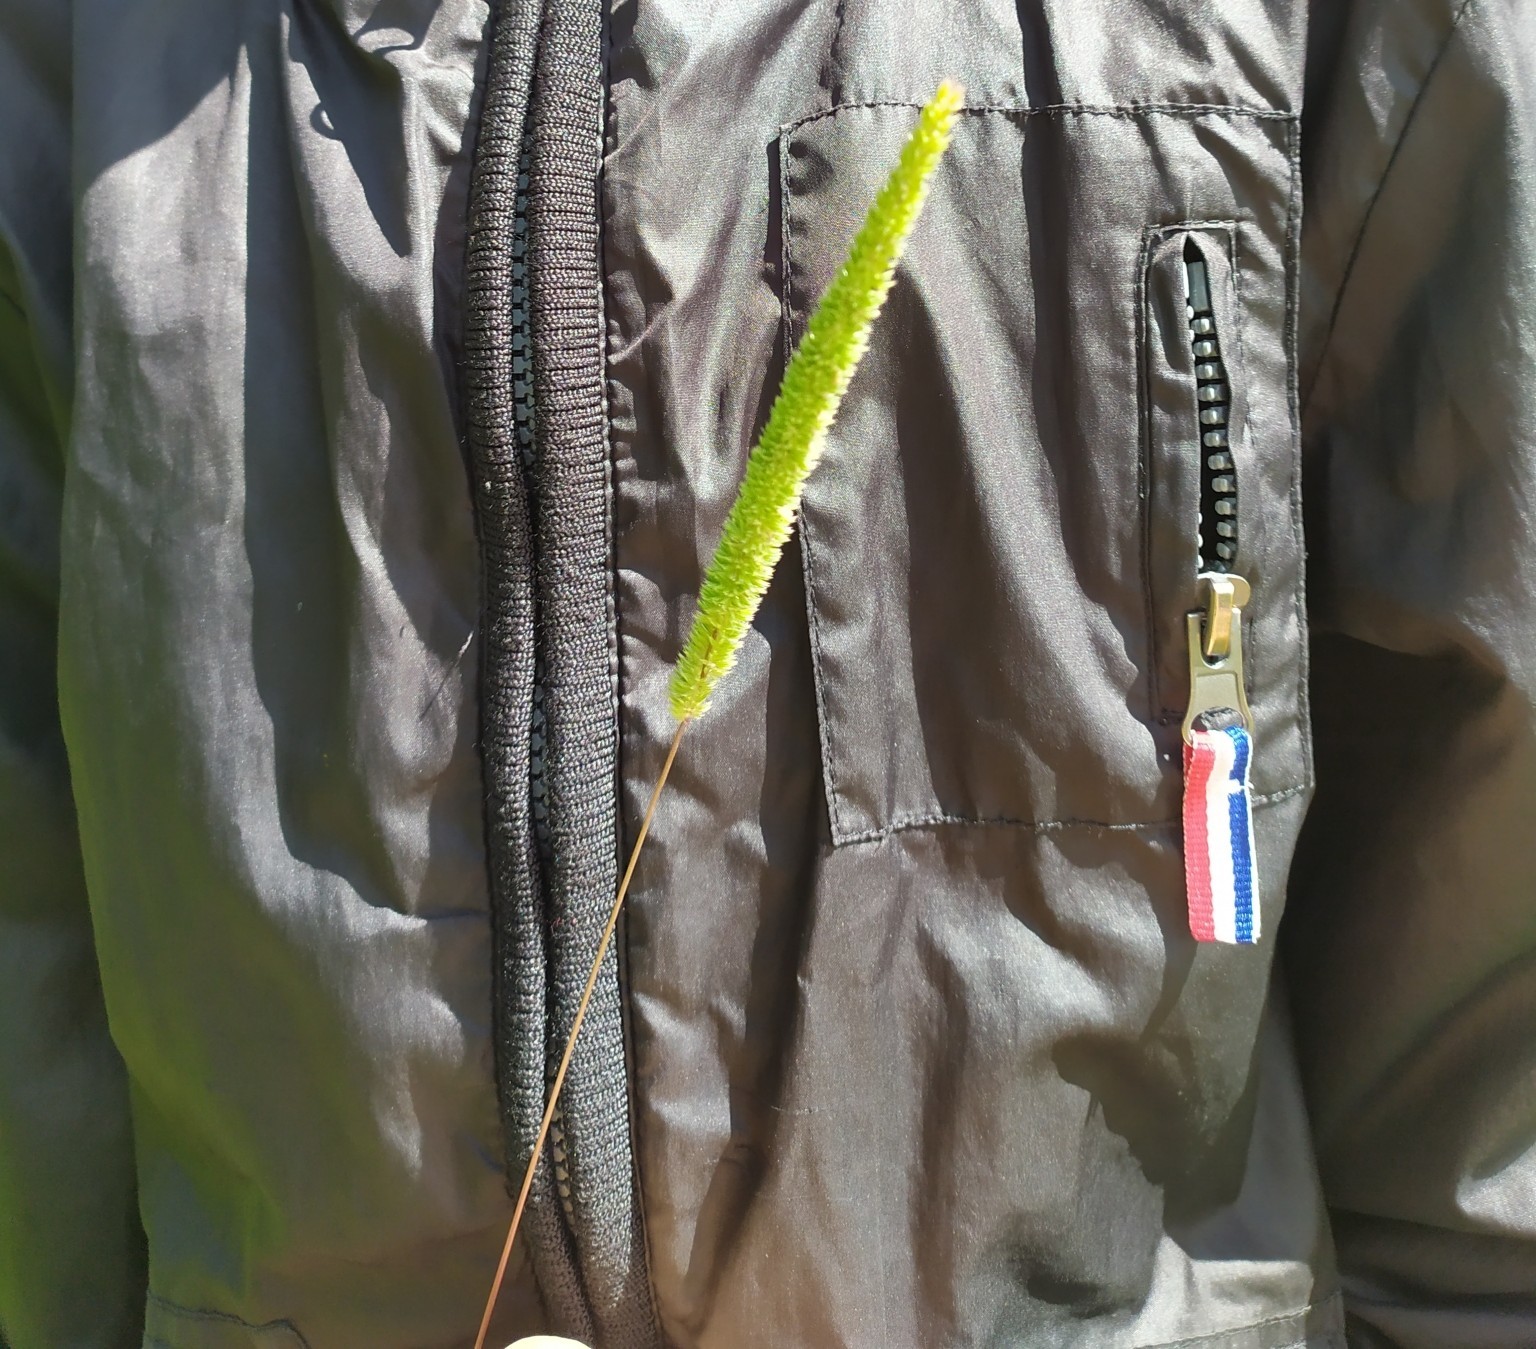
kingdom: Plantae
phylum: Tracheophyta
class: Liliopsida
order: Poales
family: Poaceae
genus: Phleum
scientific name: Phleum phleoides
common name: Purple-stem cat's-tail
